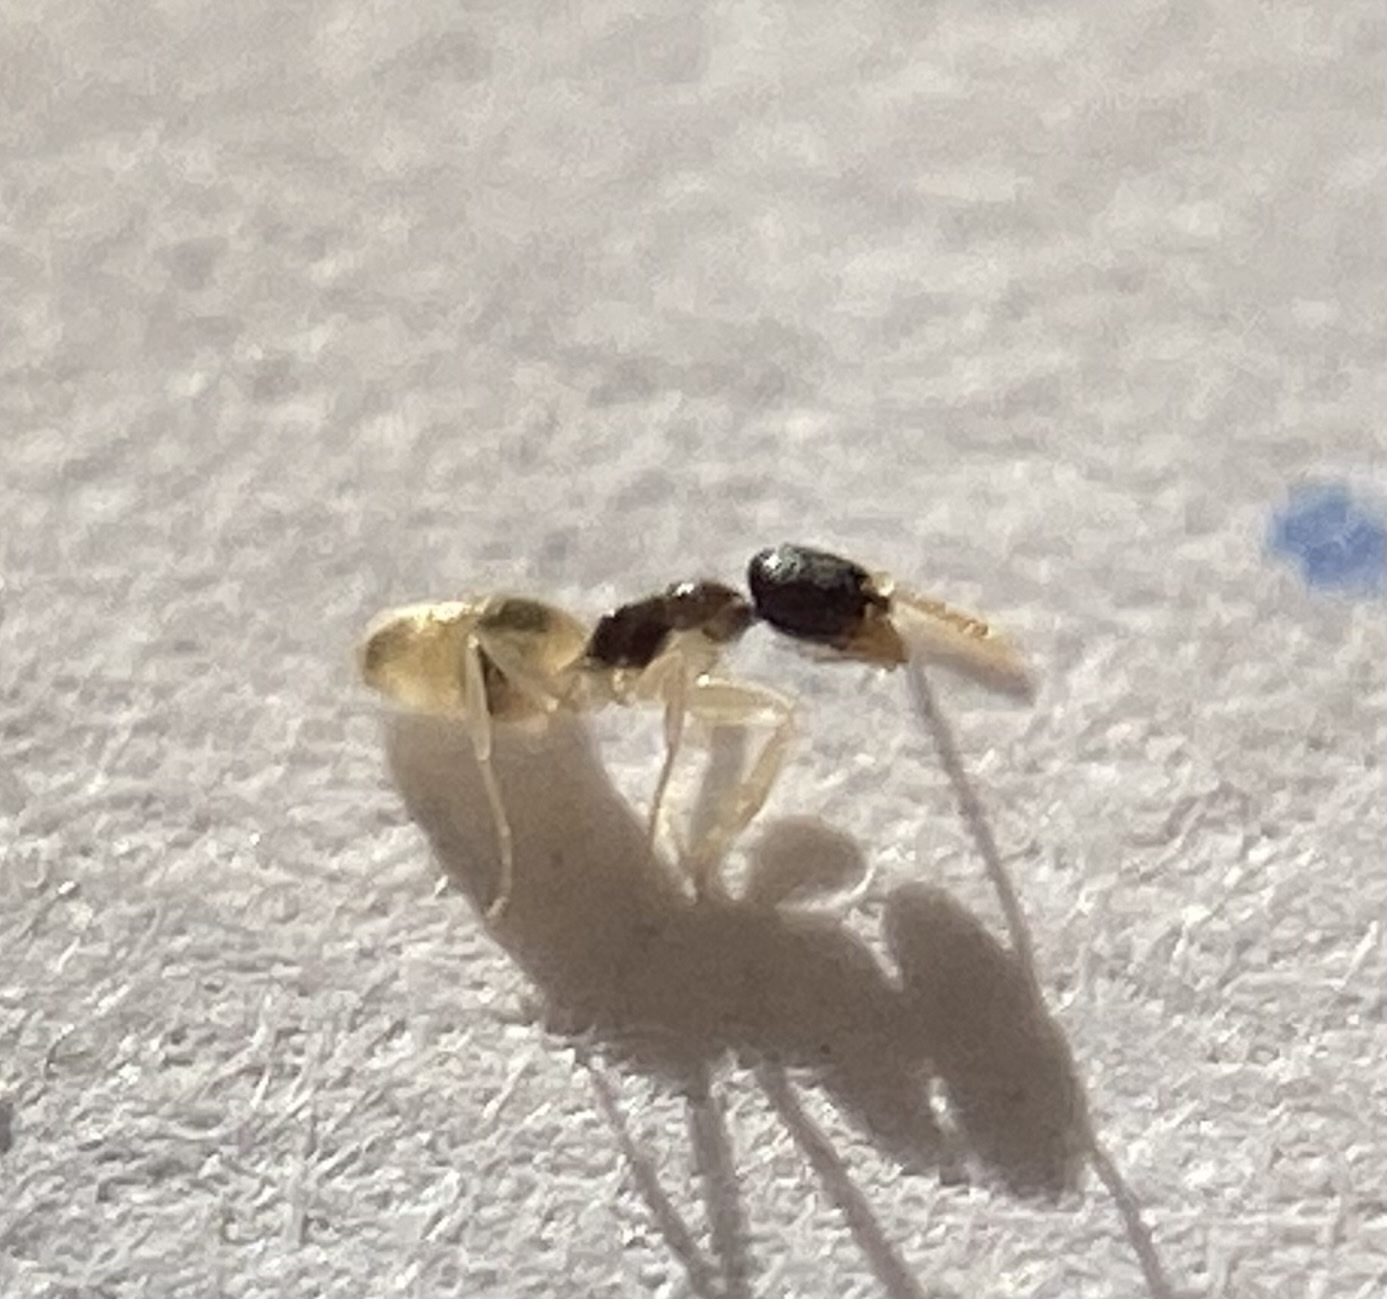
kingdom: Animalia
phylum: Arthropoda
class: Insecta
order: Hymenoptera
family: Formicidae
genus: Tapinoma
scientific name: Tapinoma melanocephalum
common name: Ghost ant
